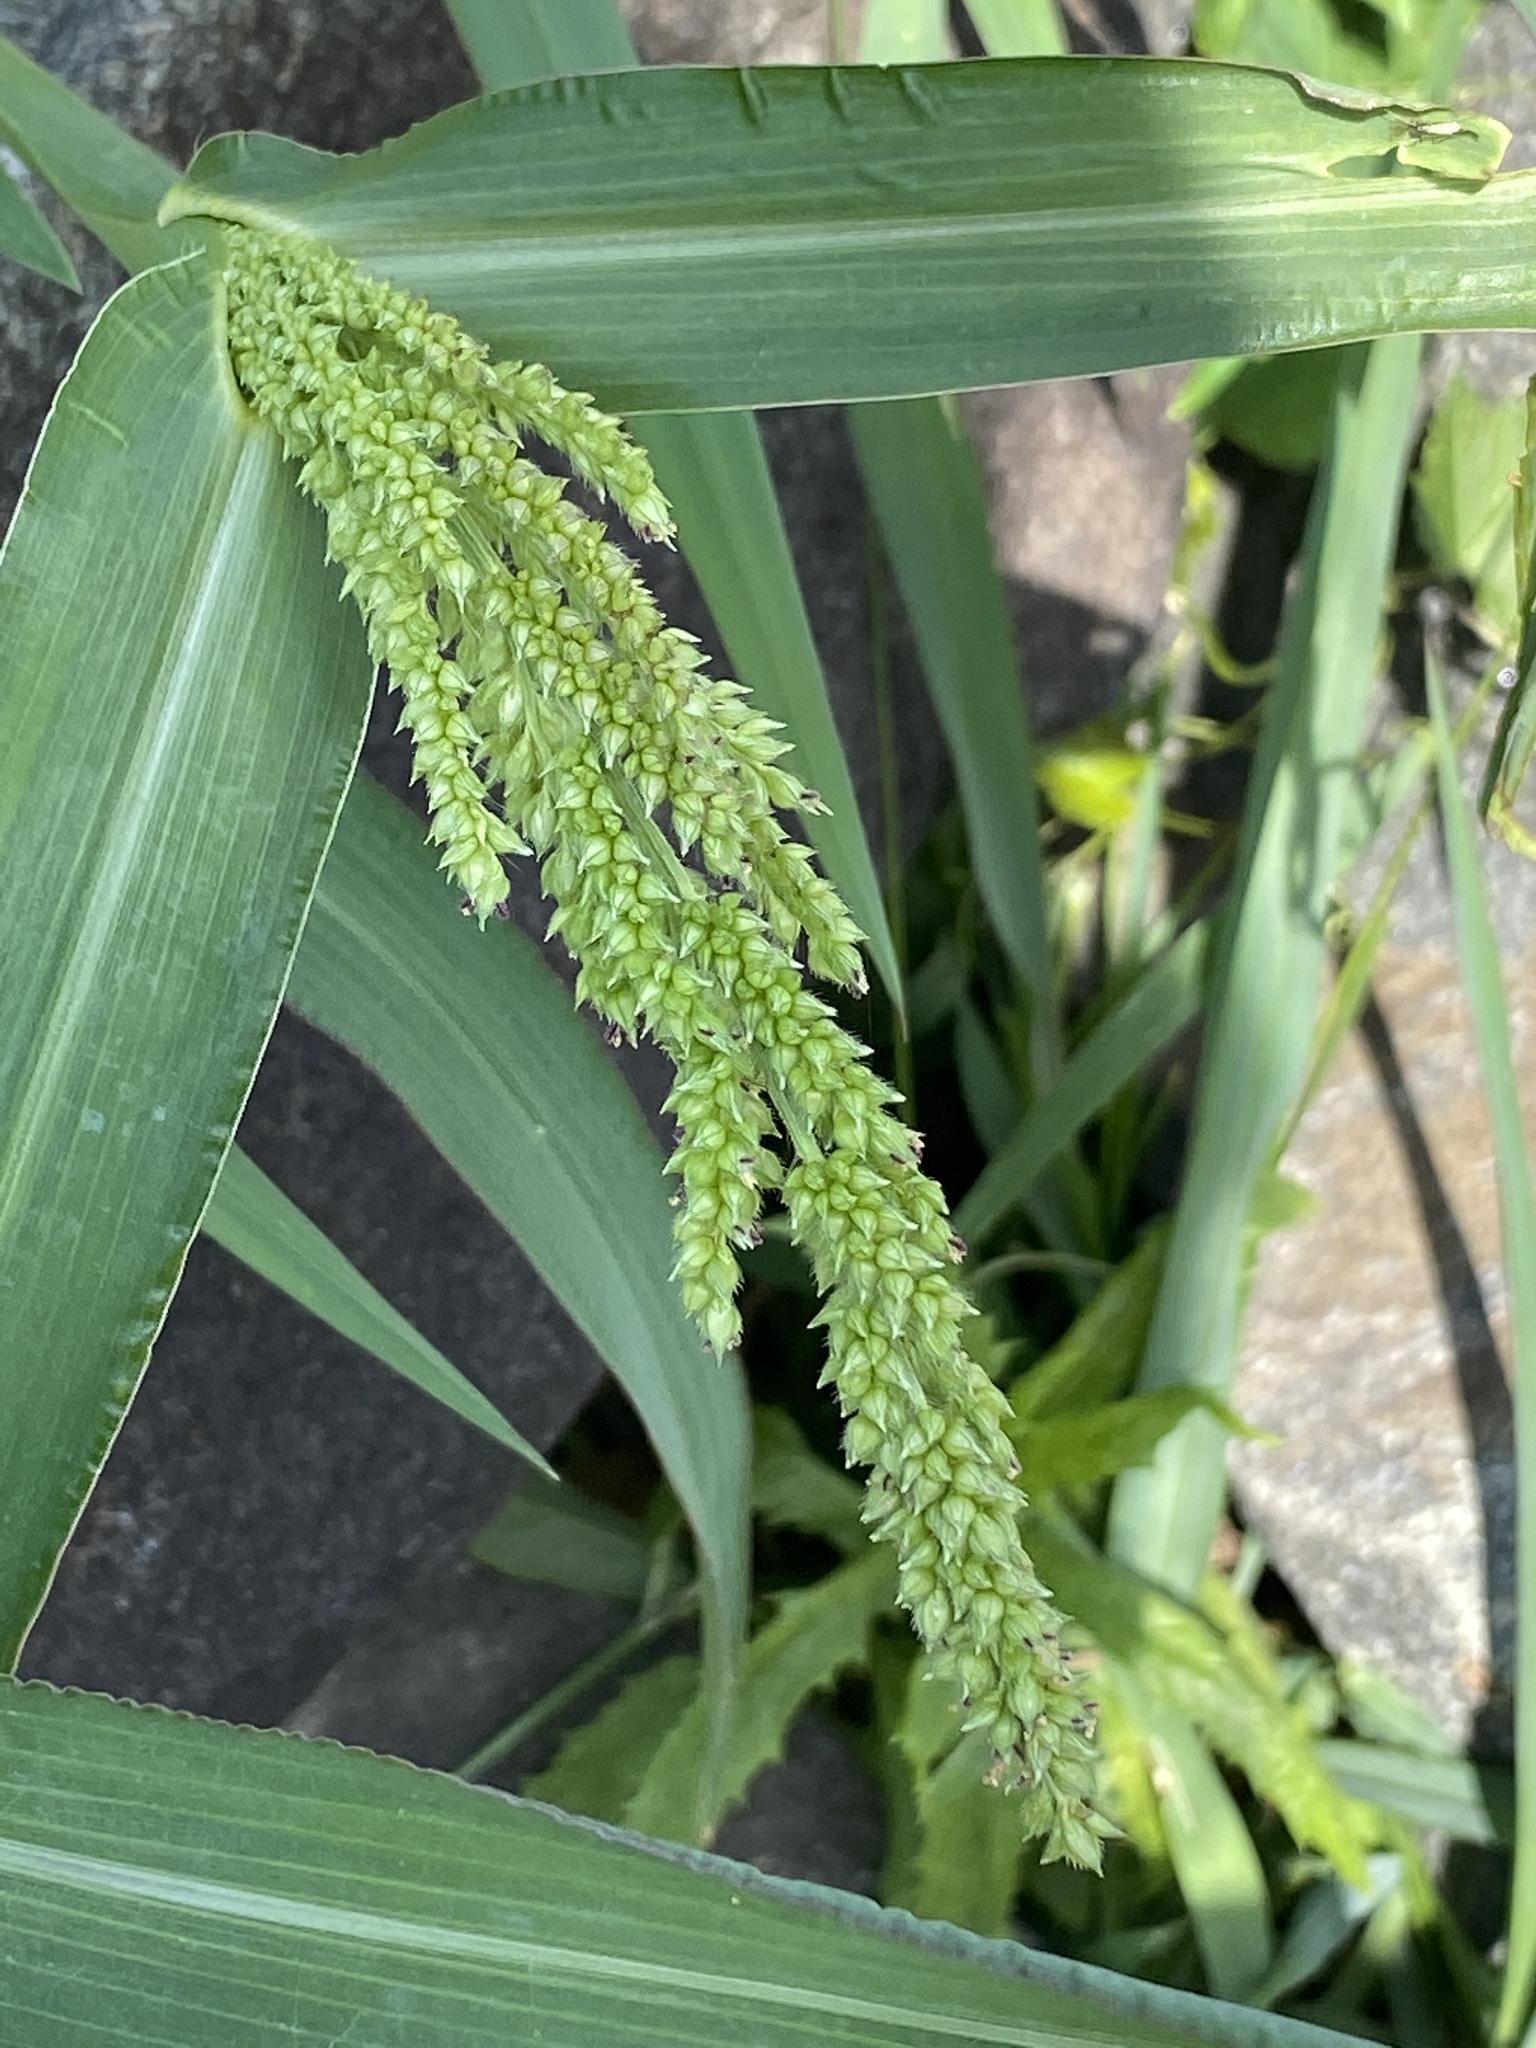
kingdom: Plantae
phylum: Tracheophyta
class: Liliopsida
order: Poales
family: Poaceae
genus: Echinochloa
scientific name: Echinochloa crus-galli
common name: Cockspur
